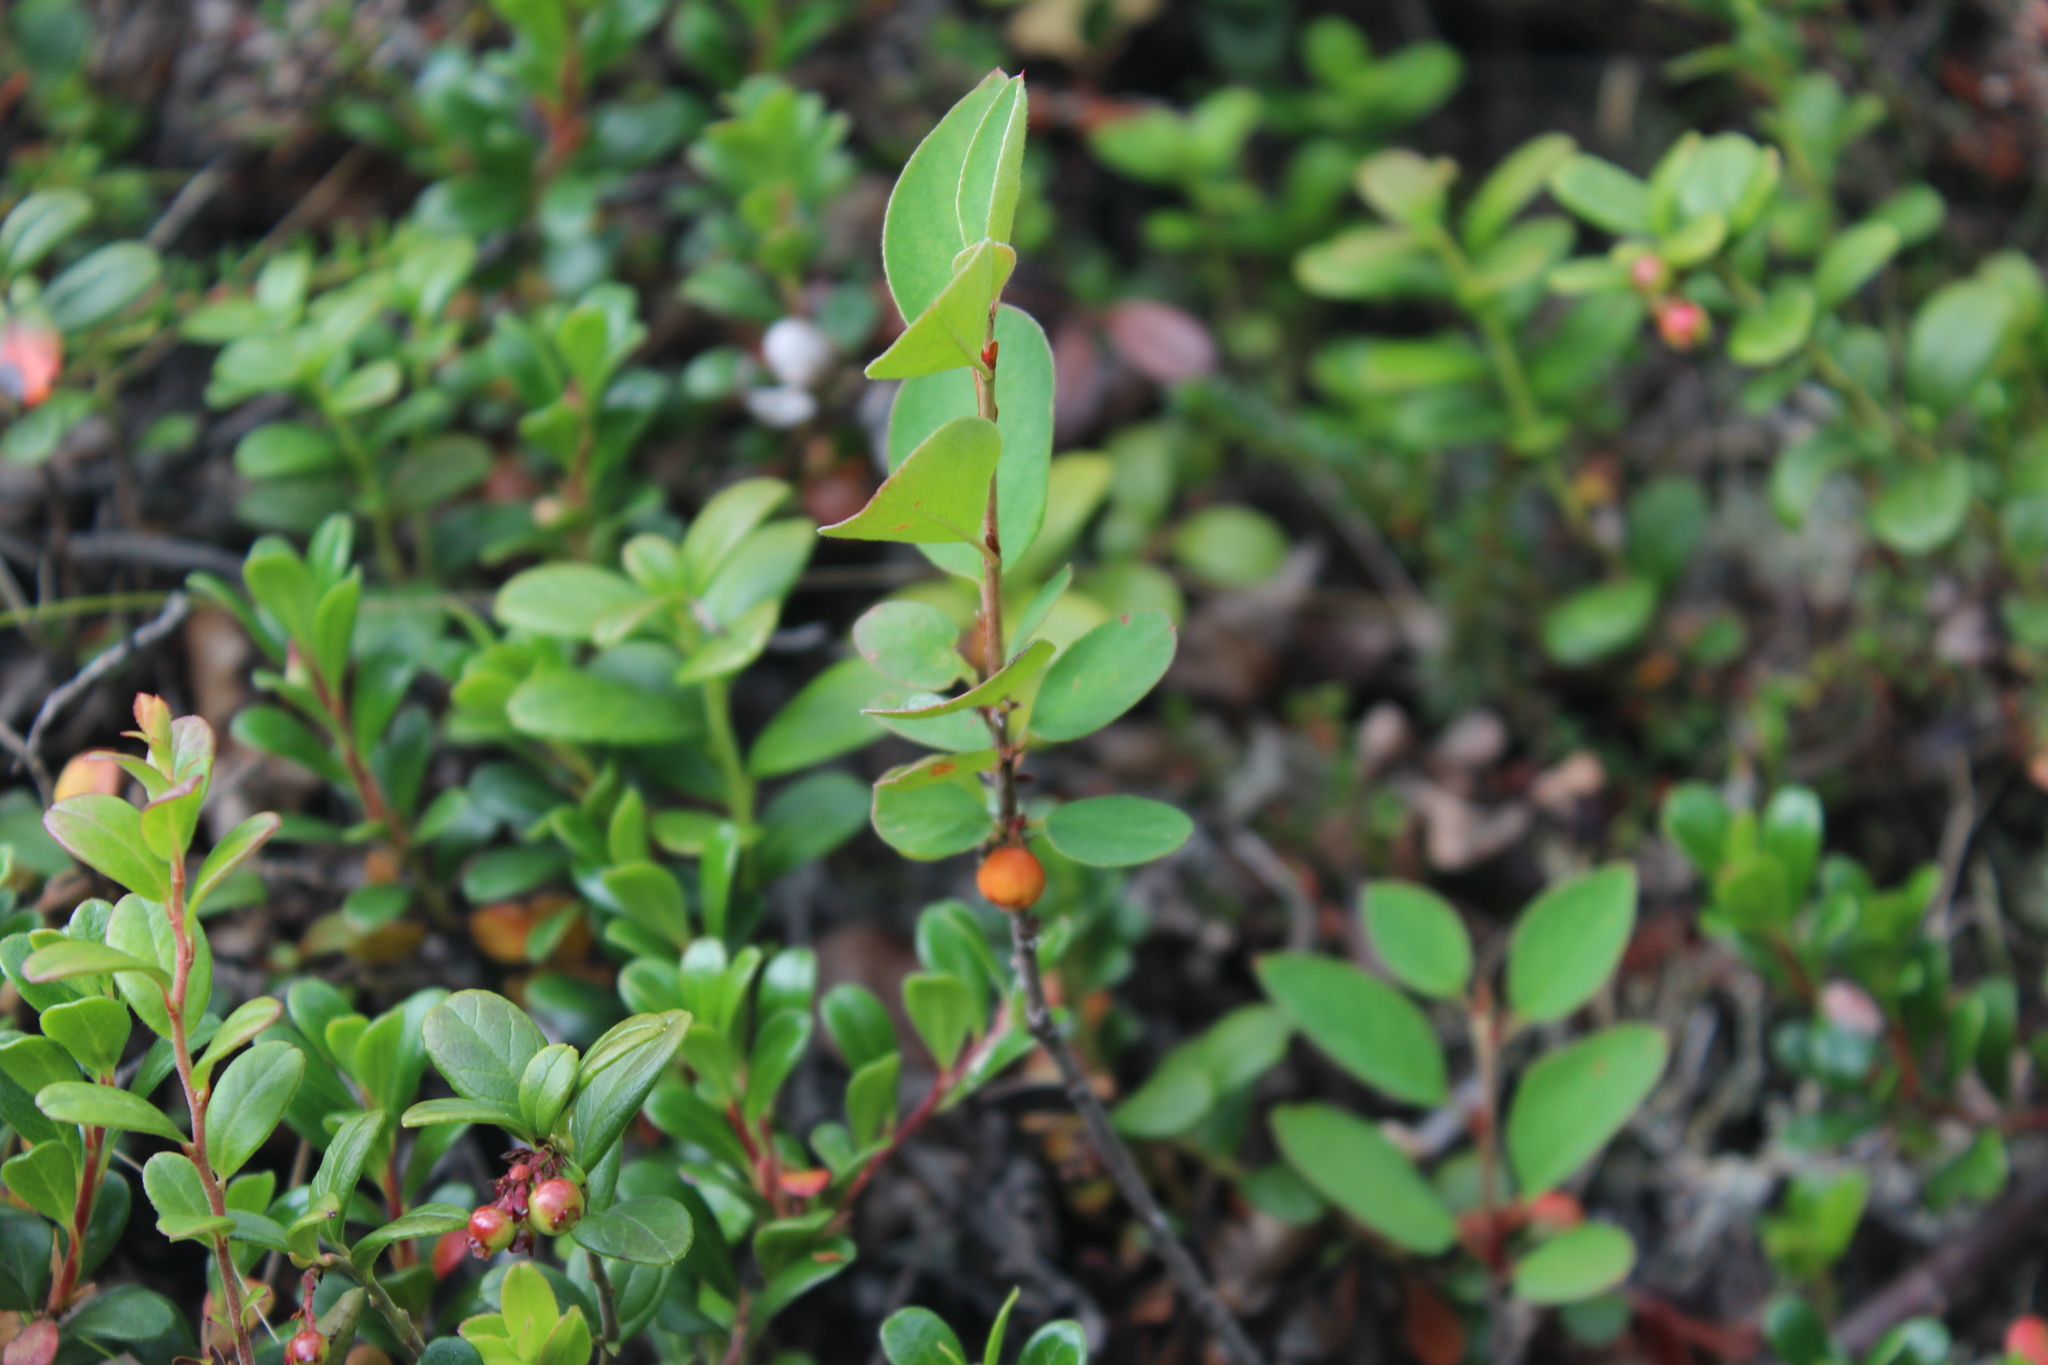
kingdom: Plantae
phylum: Tracheophyta
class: Magnoliopsida
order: Rosales
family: Rosaceae
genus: Cotoneaster
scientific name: Cotoneaster integerrimus
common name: Wild cotoneaster
